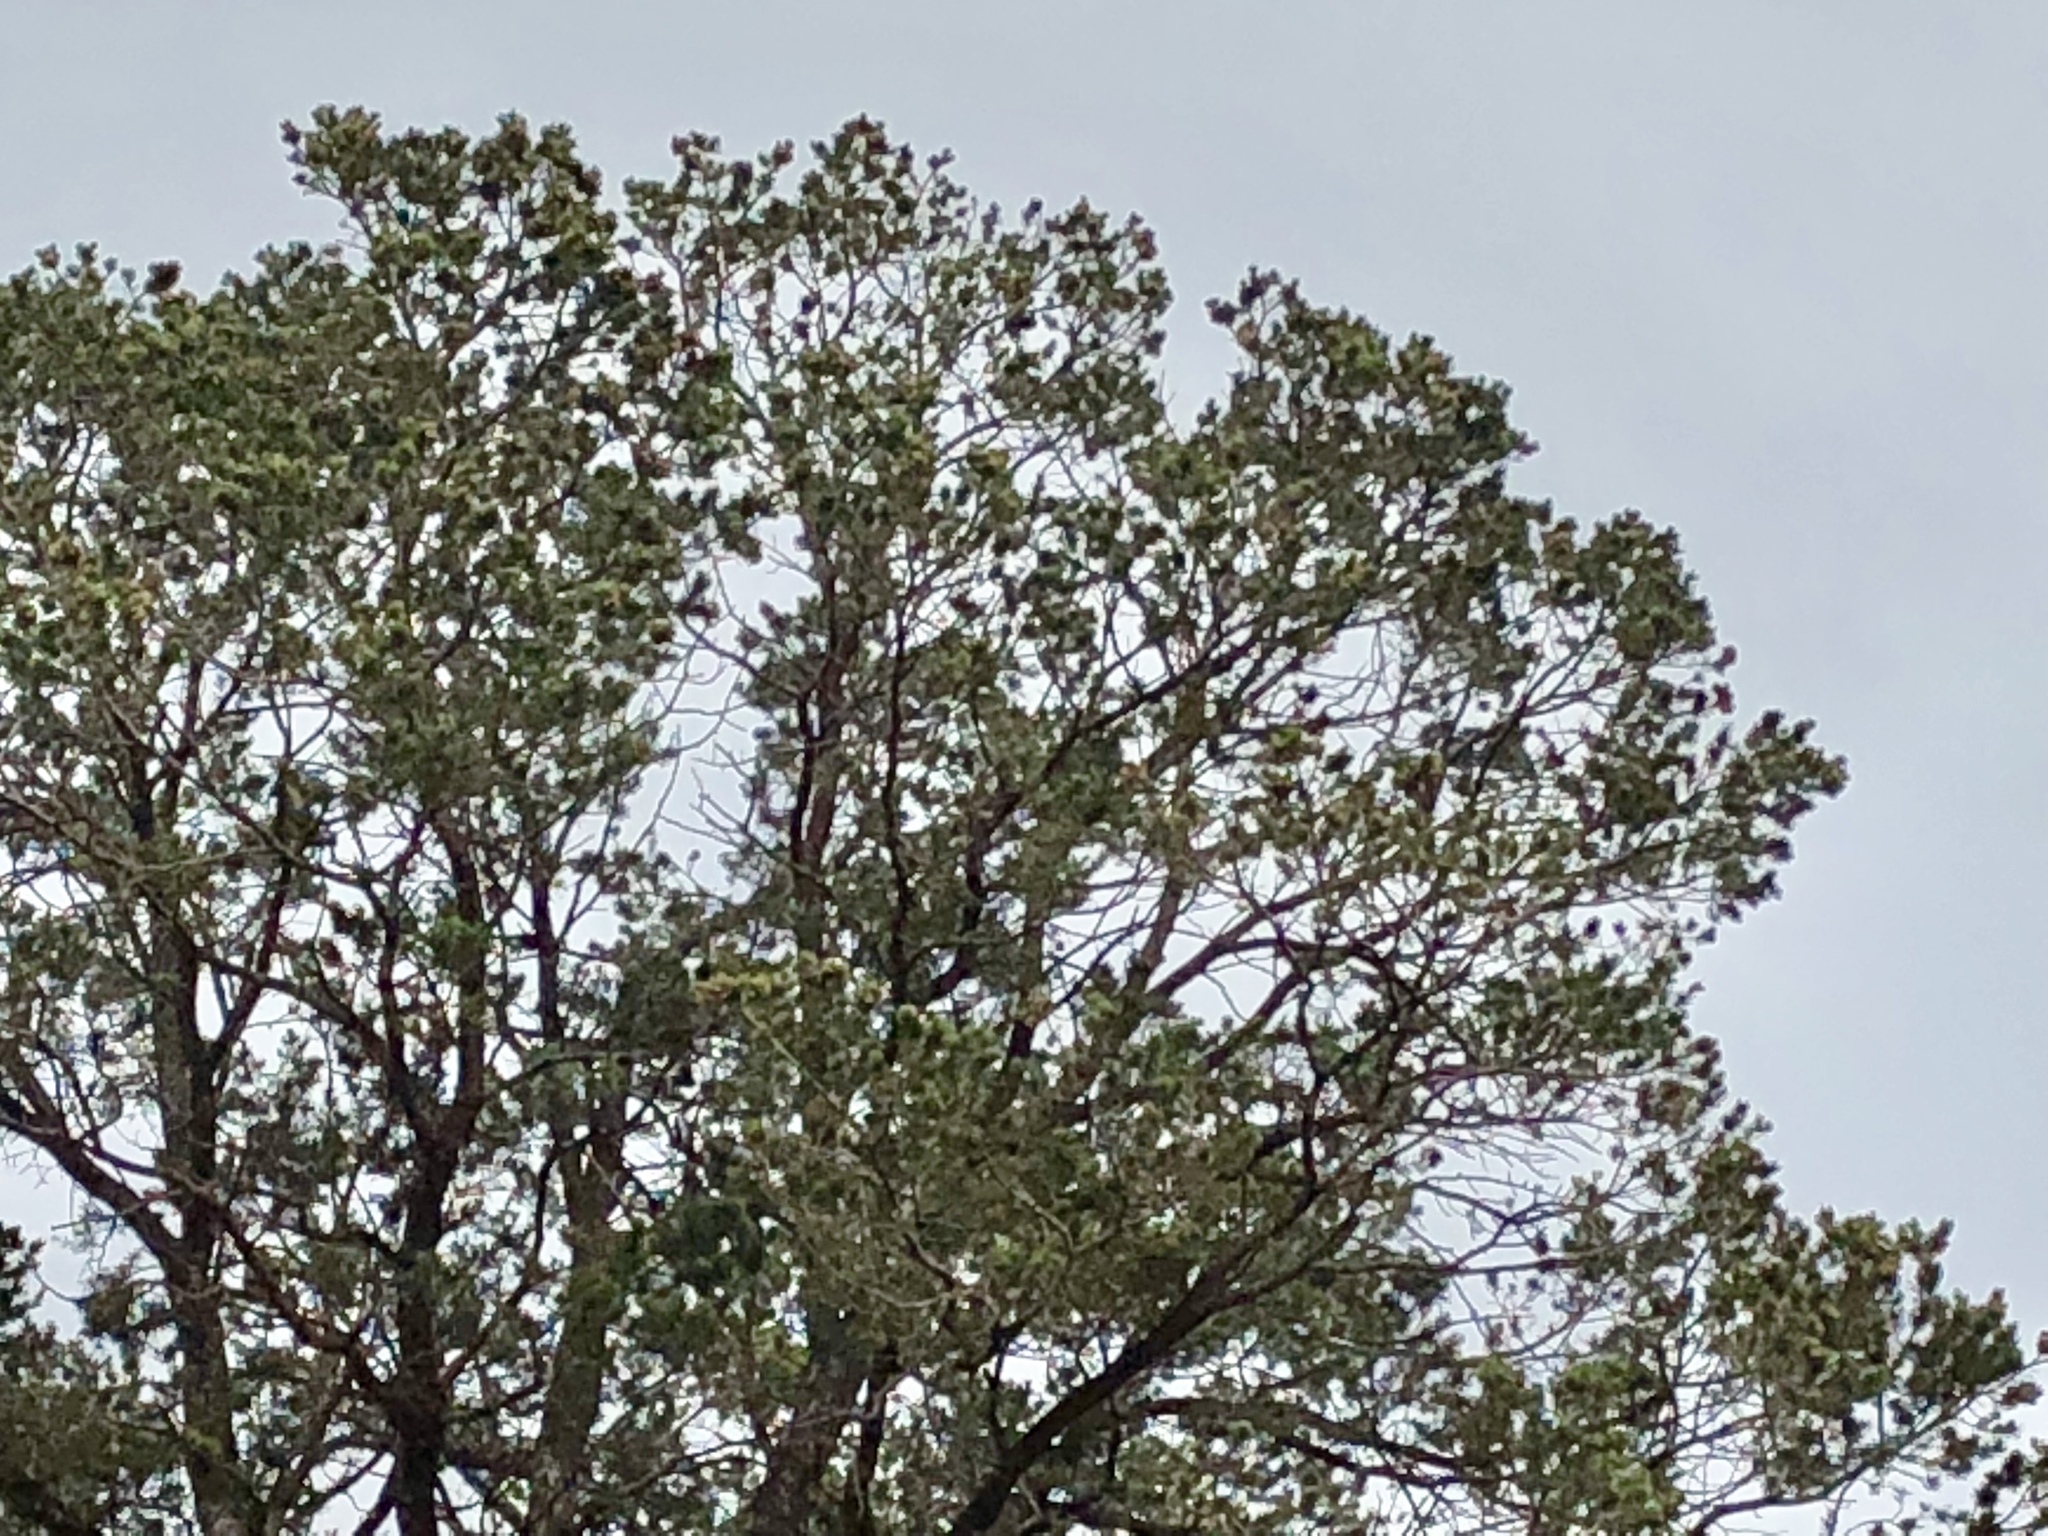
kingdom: Plantae
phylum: Tracheophyta
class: Pinopsida
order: Pinales
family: Pinaceae
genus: Pinus
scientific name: Pinus edulis
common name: Colorado pinyon
